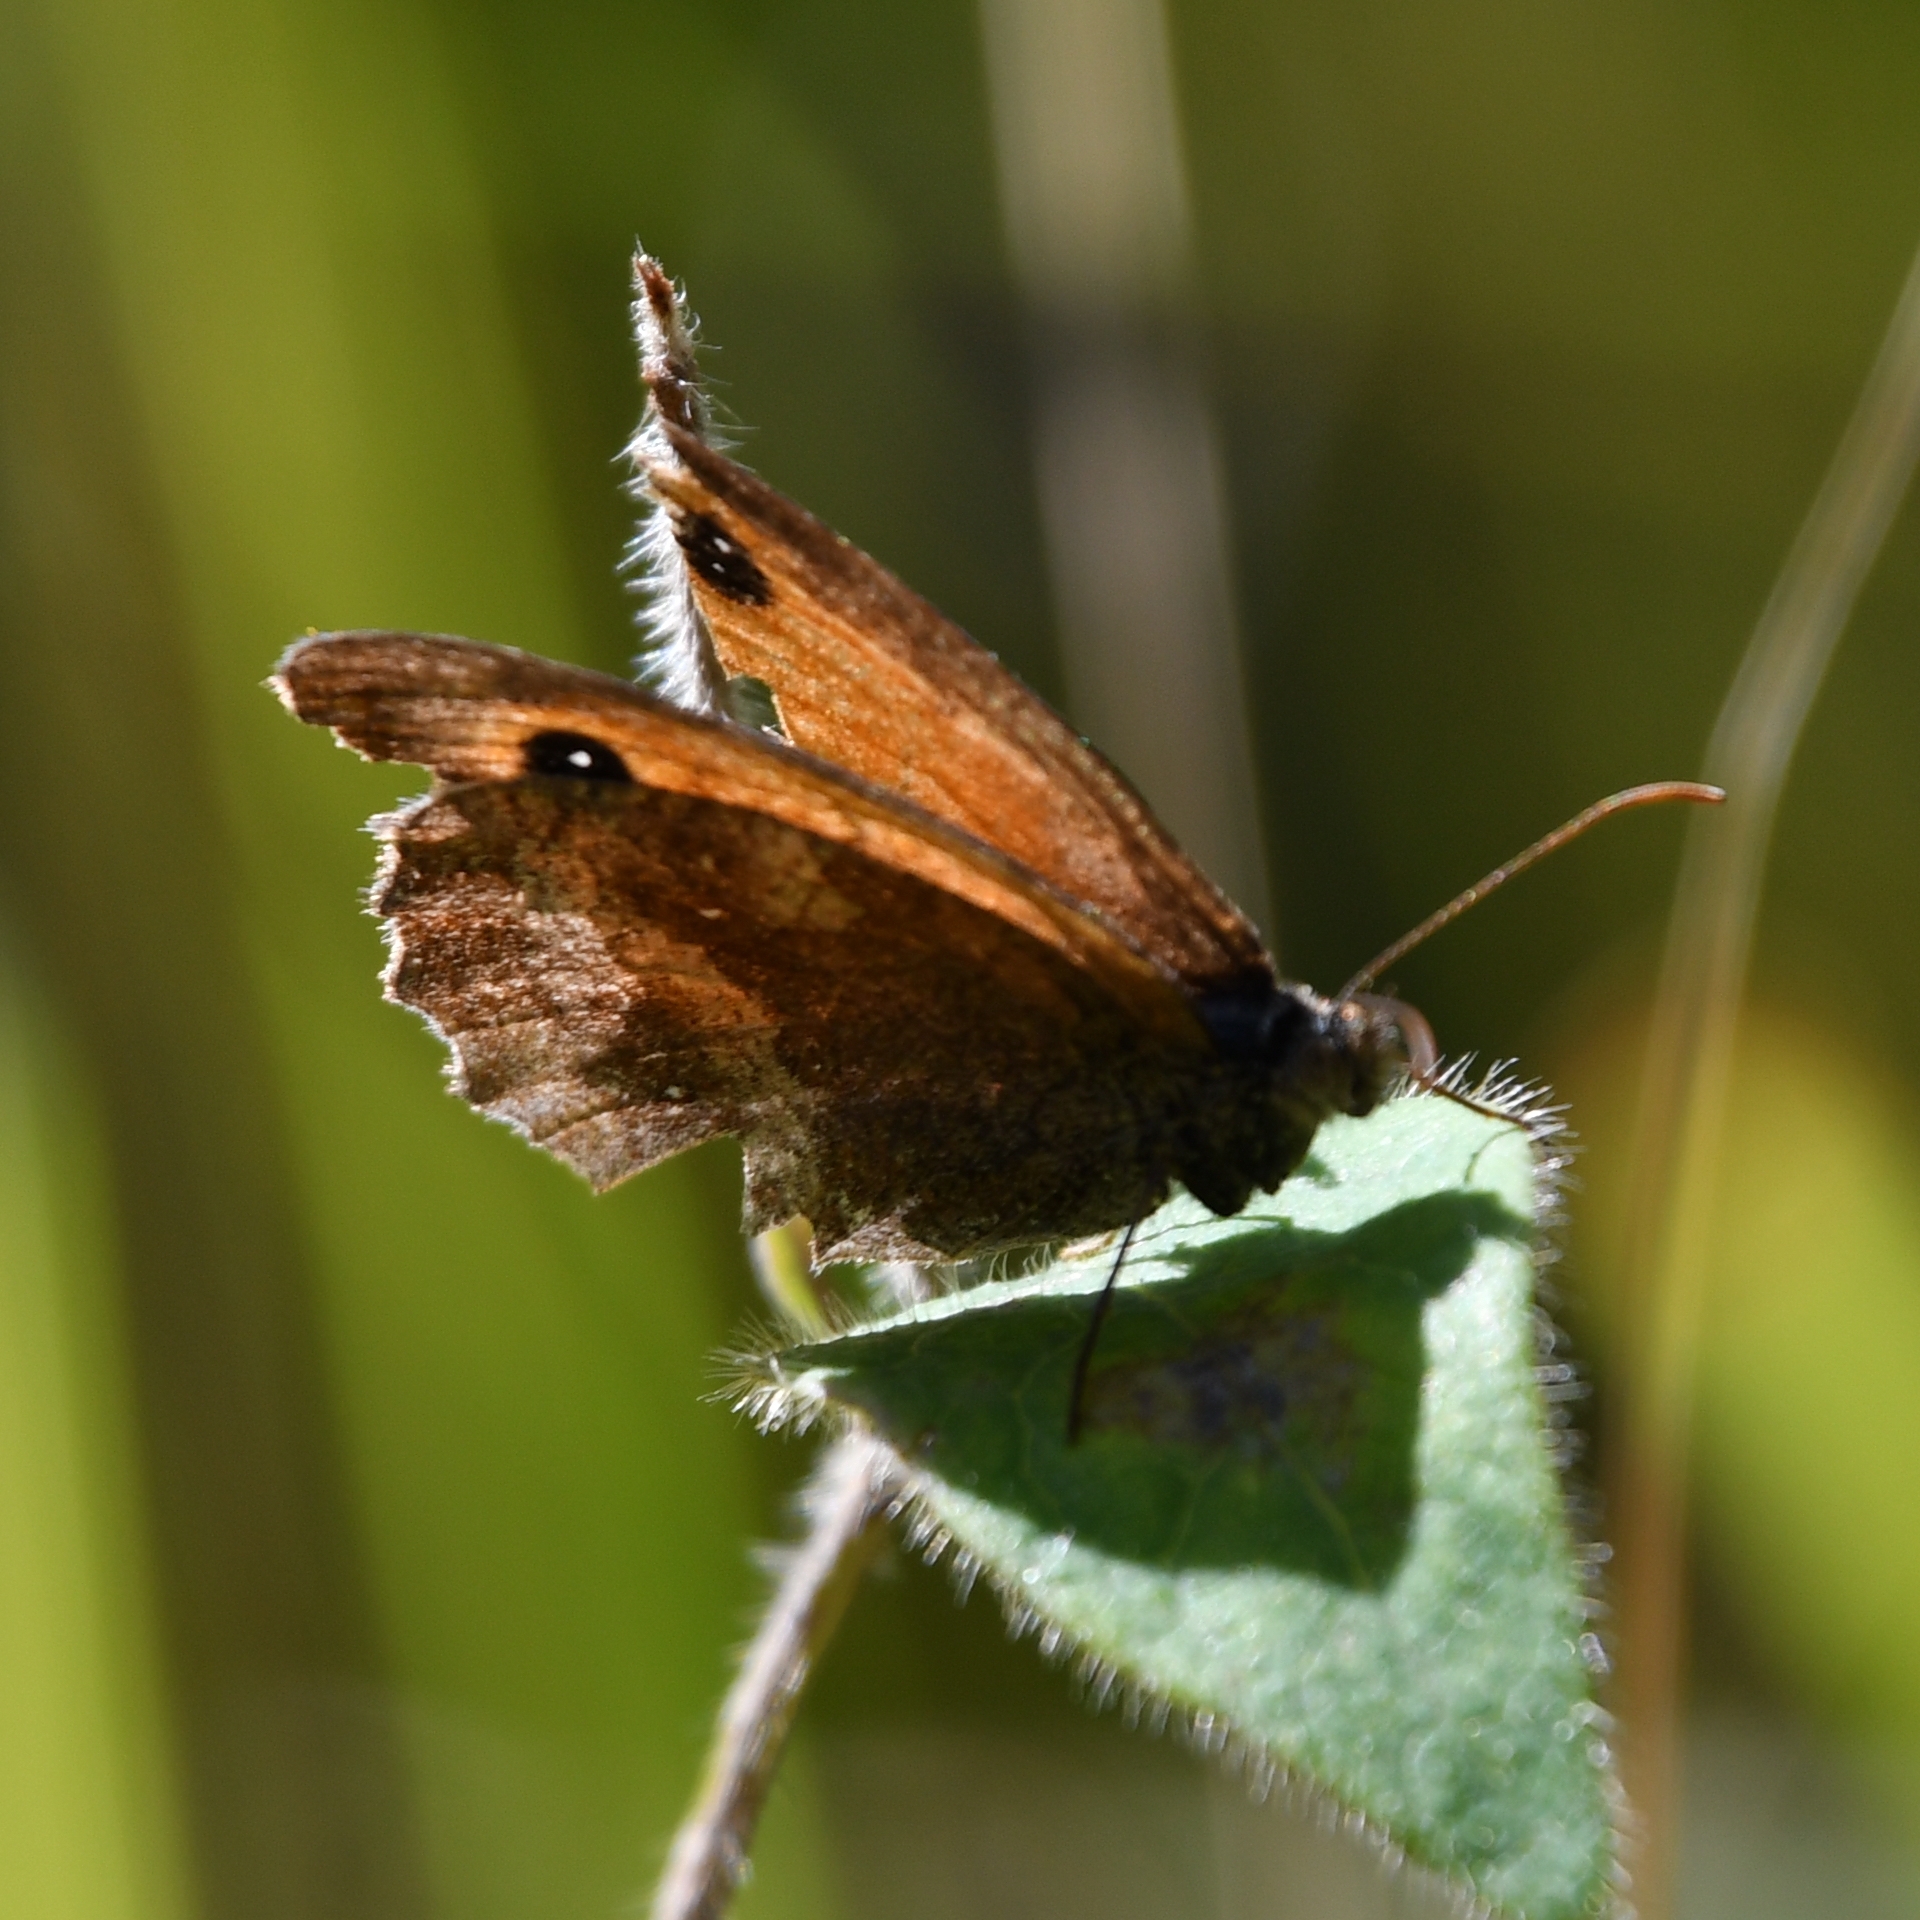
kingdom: Animalia
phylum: Arthropoda
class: Insecta
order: Lepidoptera
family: Nymphalidae
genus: Pyronia
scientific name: Pyronia tithonus
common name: Gatekeeper
